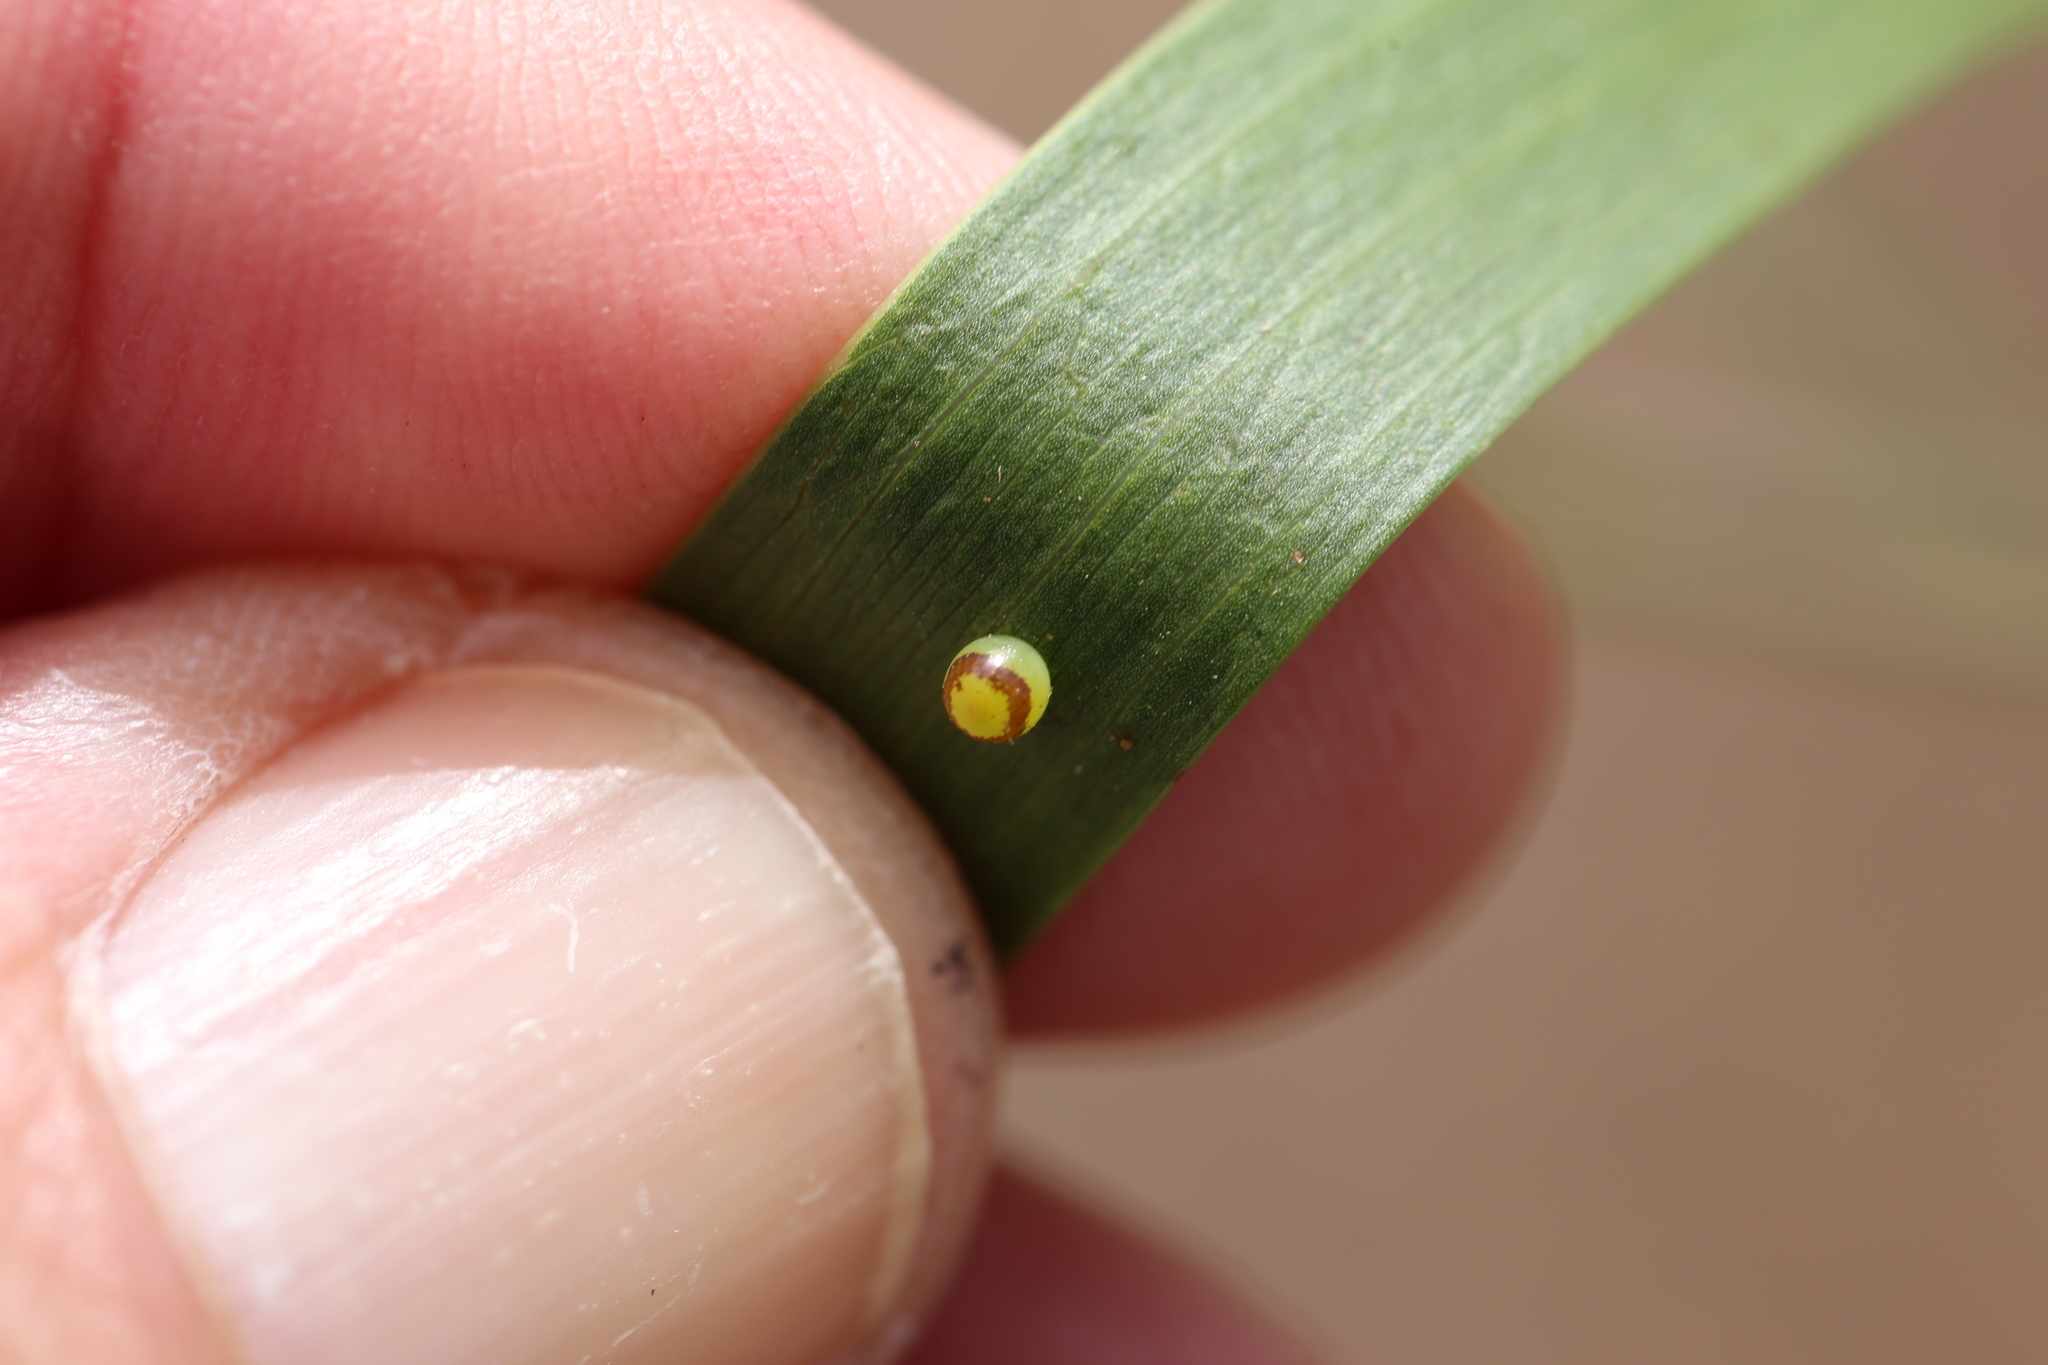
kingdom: Animalia
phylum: Arthropoda
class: Insecta
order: Lepidoptera
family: Nymphalidae
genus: Charaxes
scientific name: Charaxes
